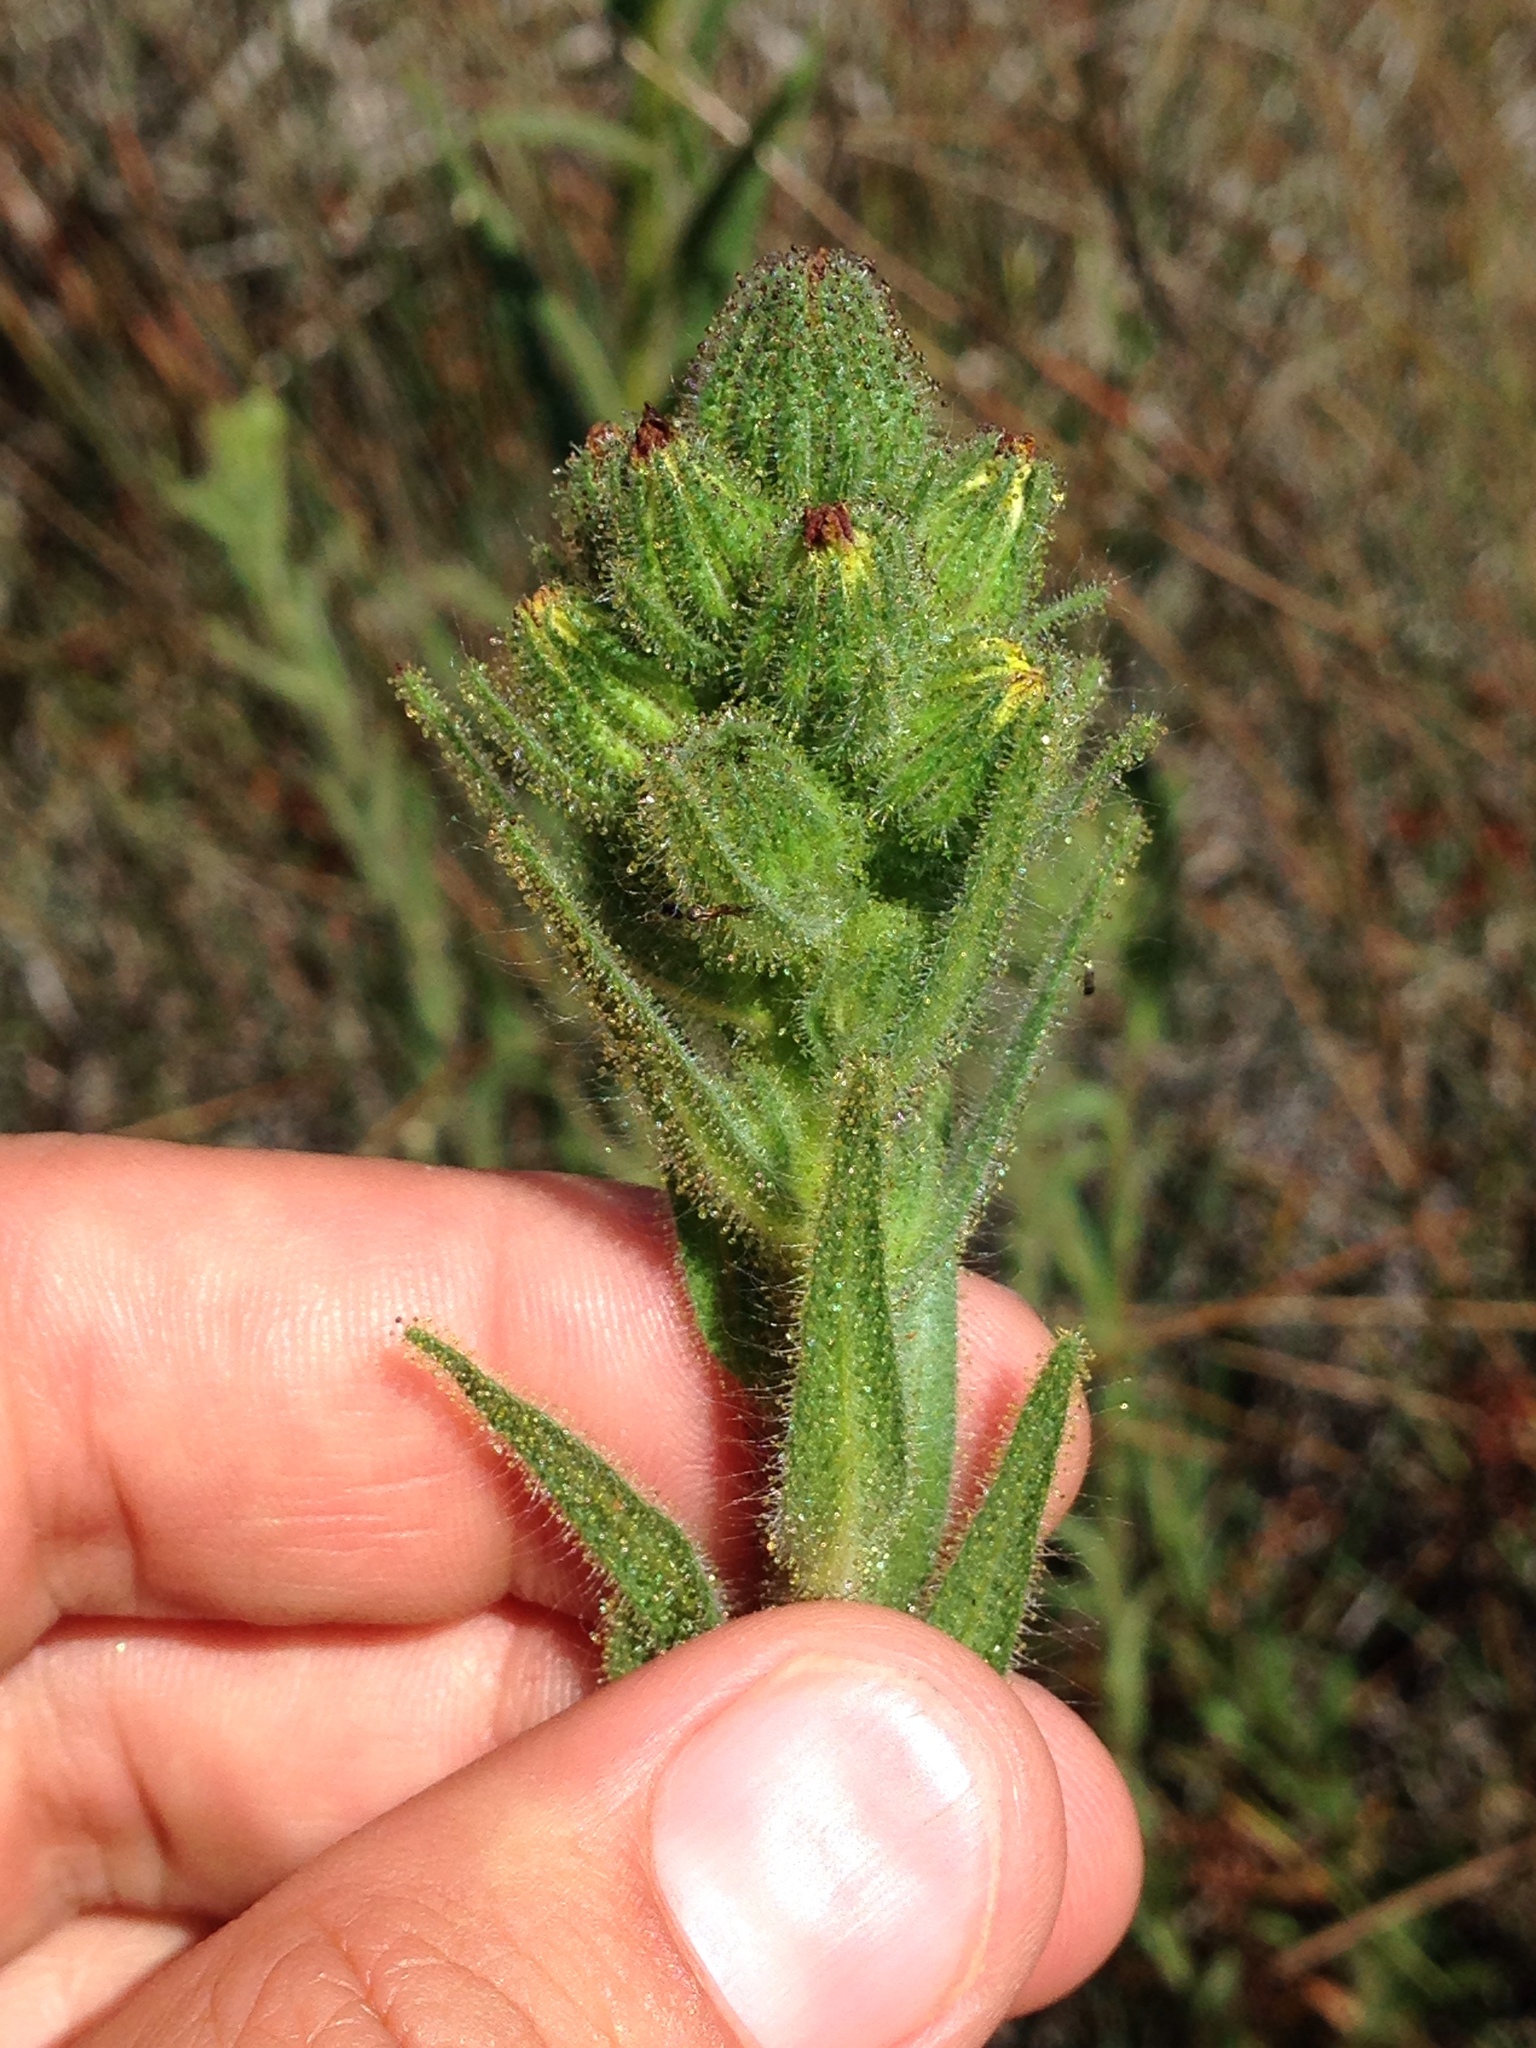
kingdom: Plantae
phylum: Tracheophyta
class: Magnoliopsida
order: Asterales
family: Asteraceae
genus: Madia
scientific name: Madia sativa
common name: Coast tarweed
